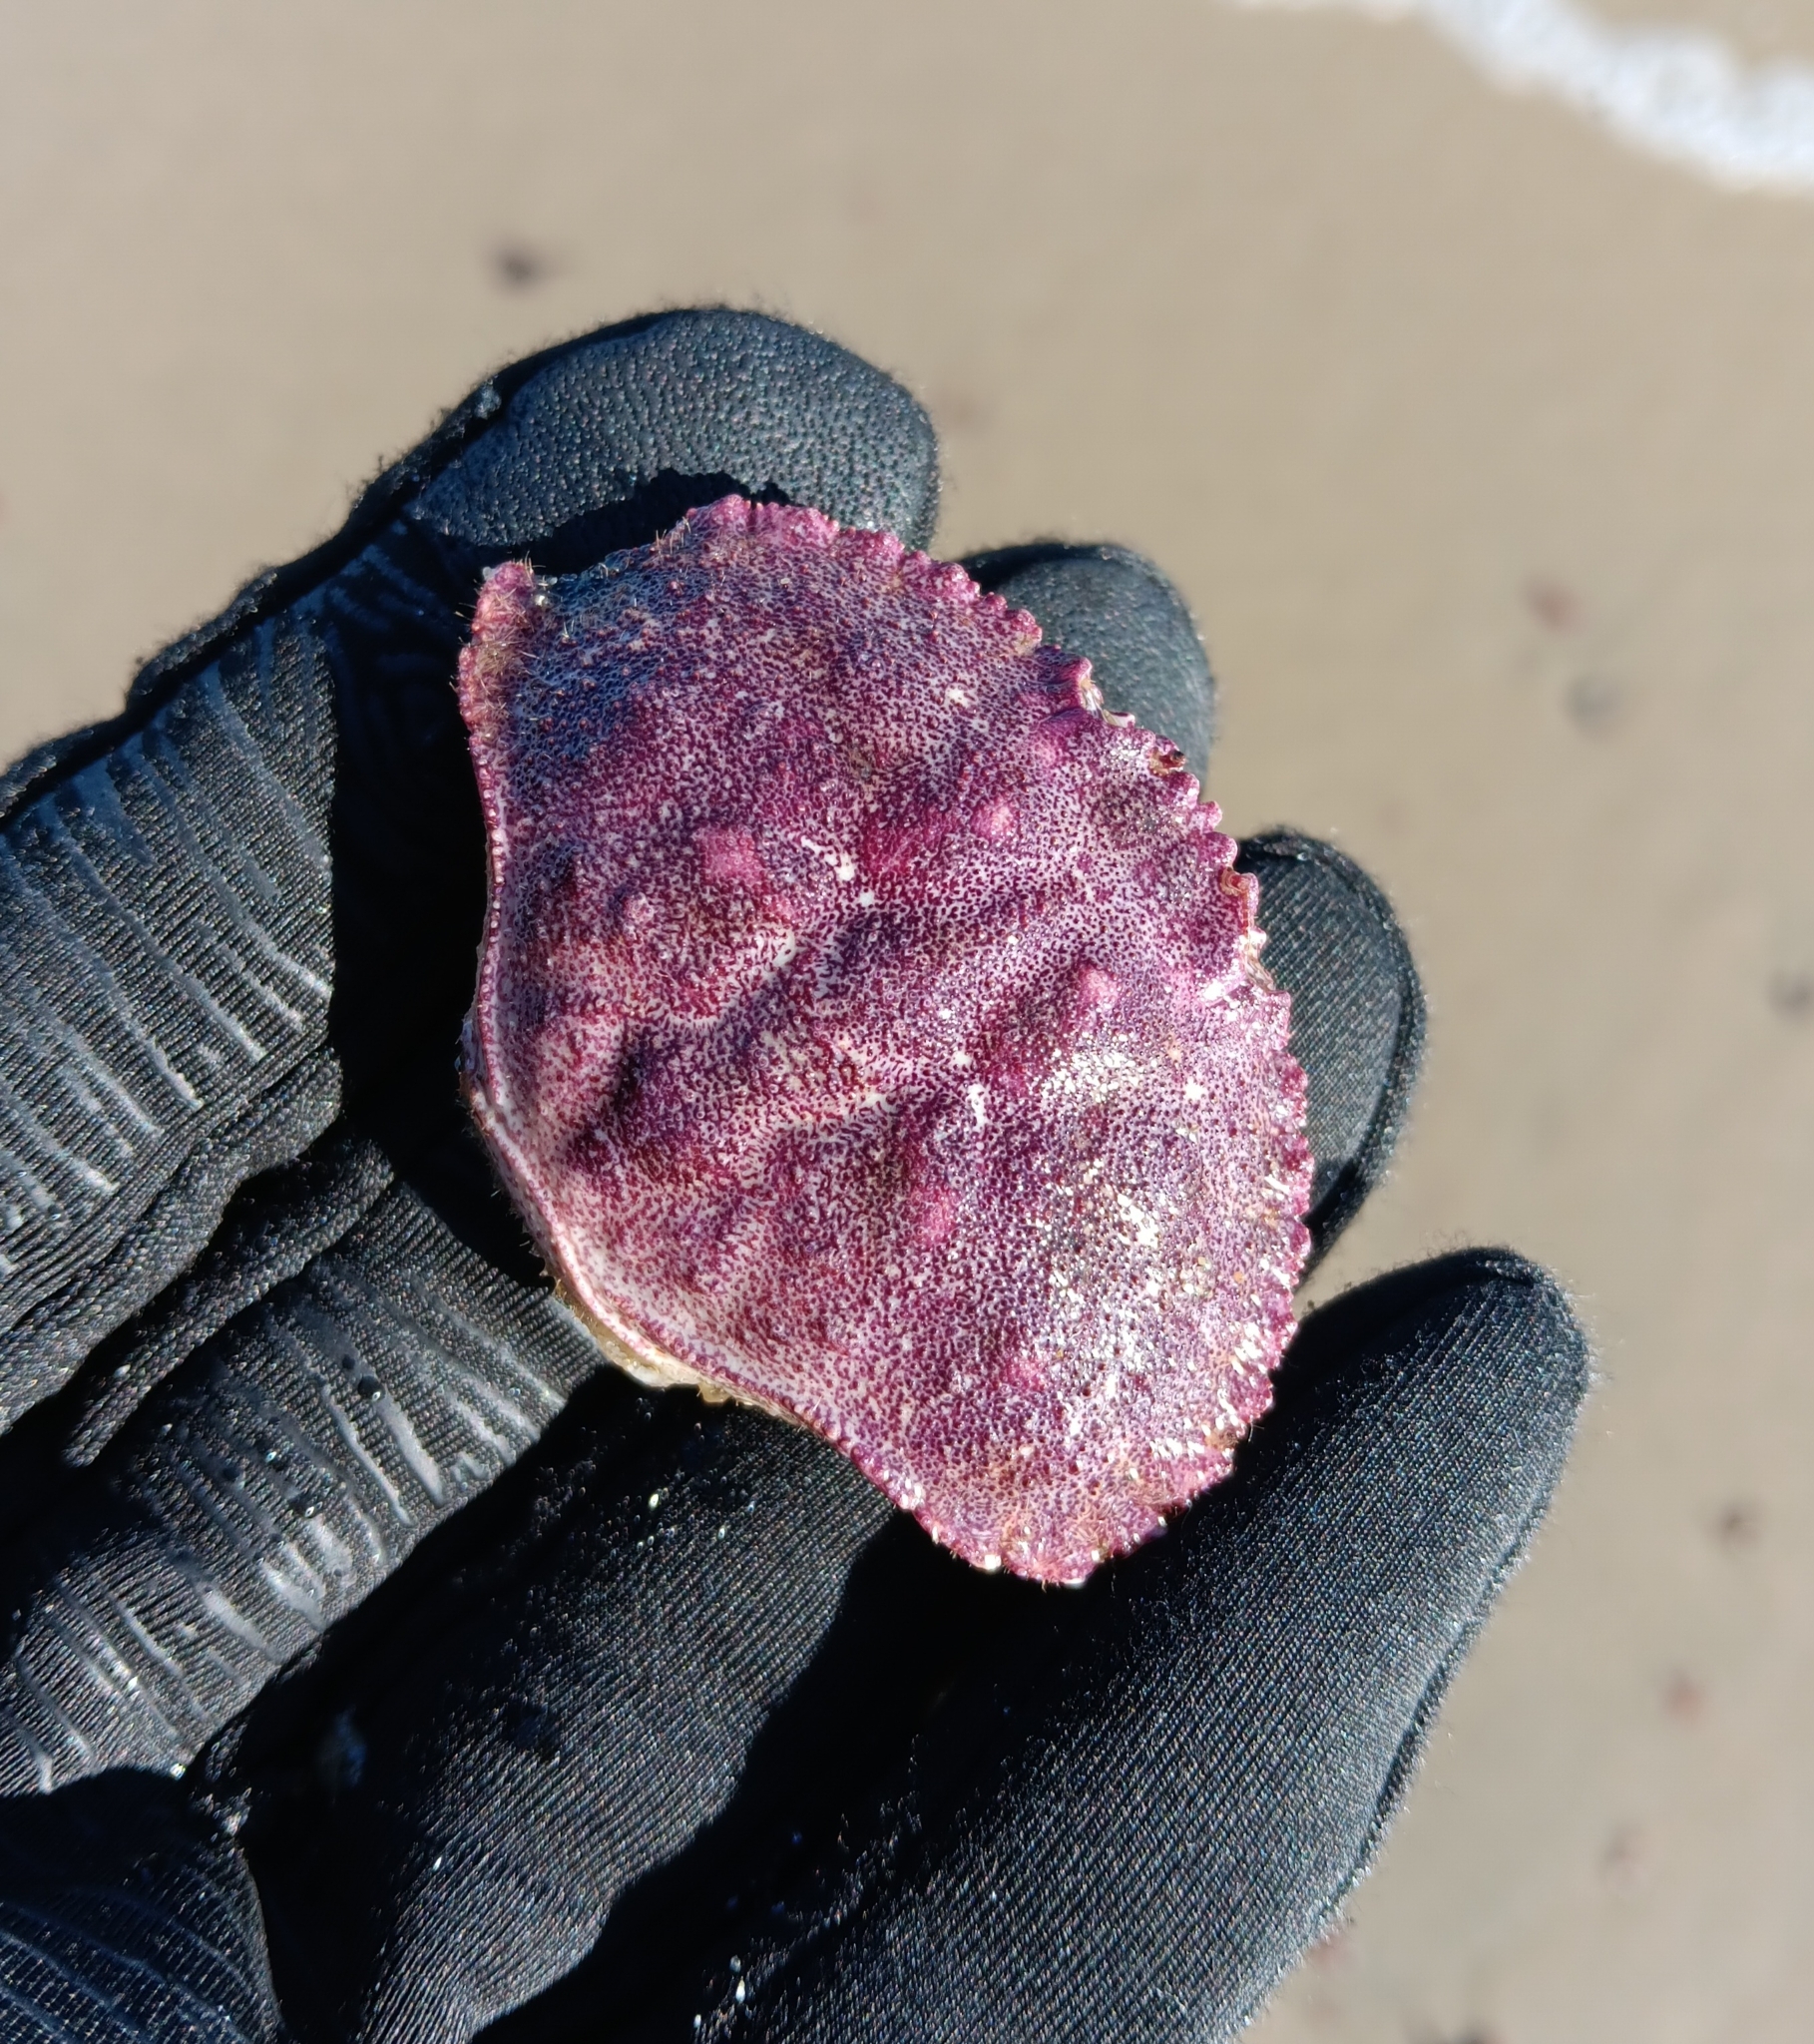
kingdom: Animalia
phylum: Arthropoda
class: Malacostraca
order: Decapoda
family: Cancridae
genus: Cancer
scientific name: Cancer borealis
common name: Jonah crab
